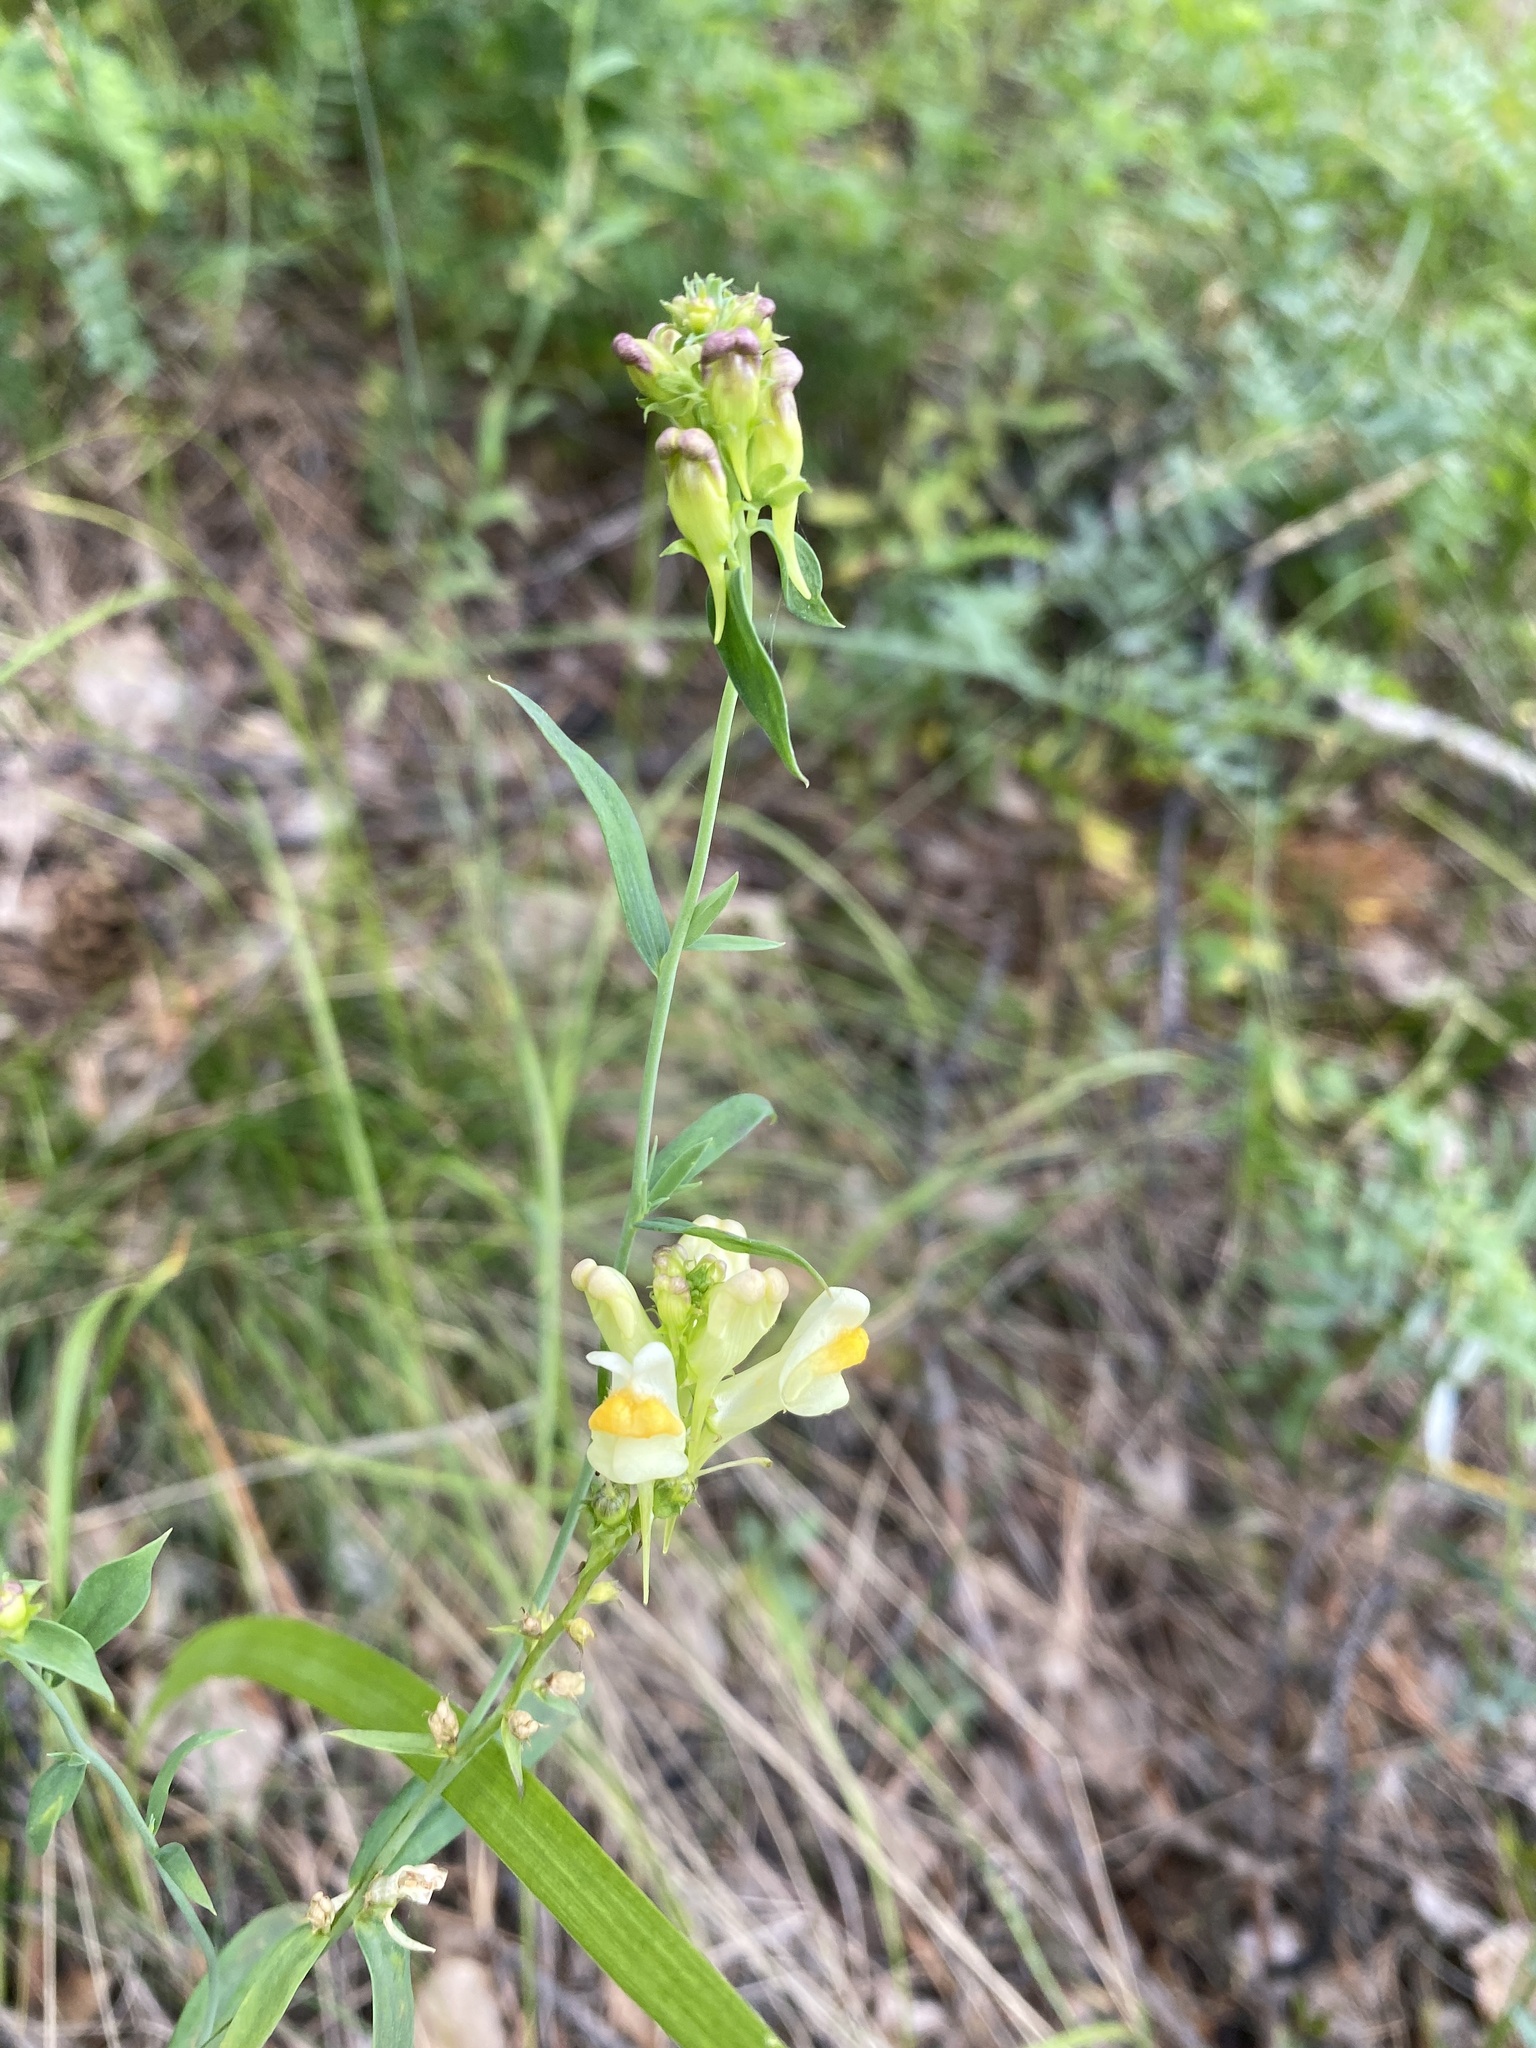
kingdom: Plantae
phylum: Tracheophyta
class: Magnoliopsida
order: Lamiales
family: Plantaginaceae
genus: Linaria
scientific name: Linaria vulgaris
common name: Butter and eggs
